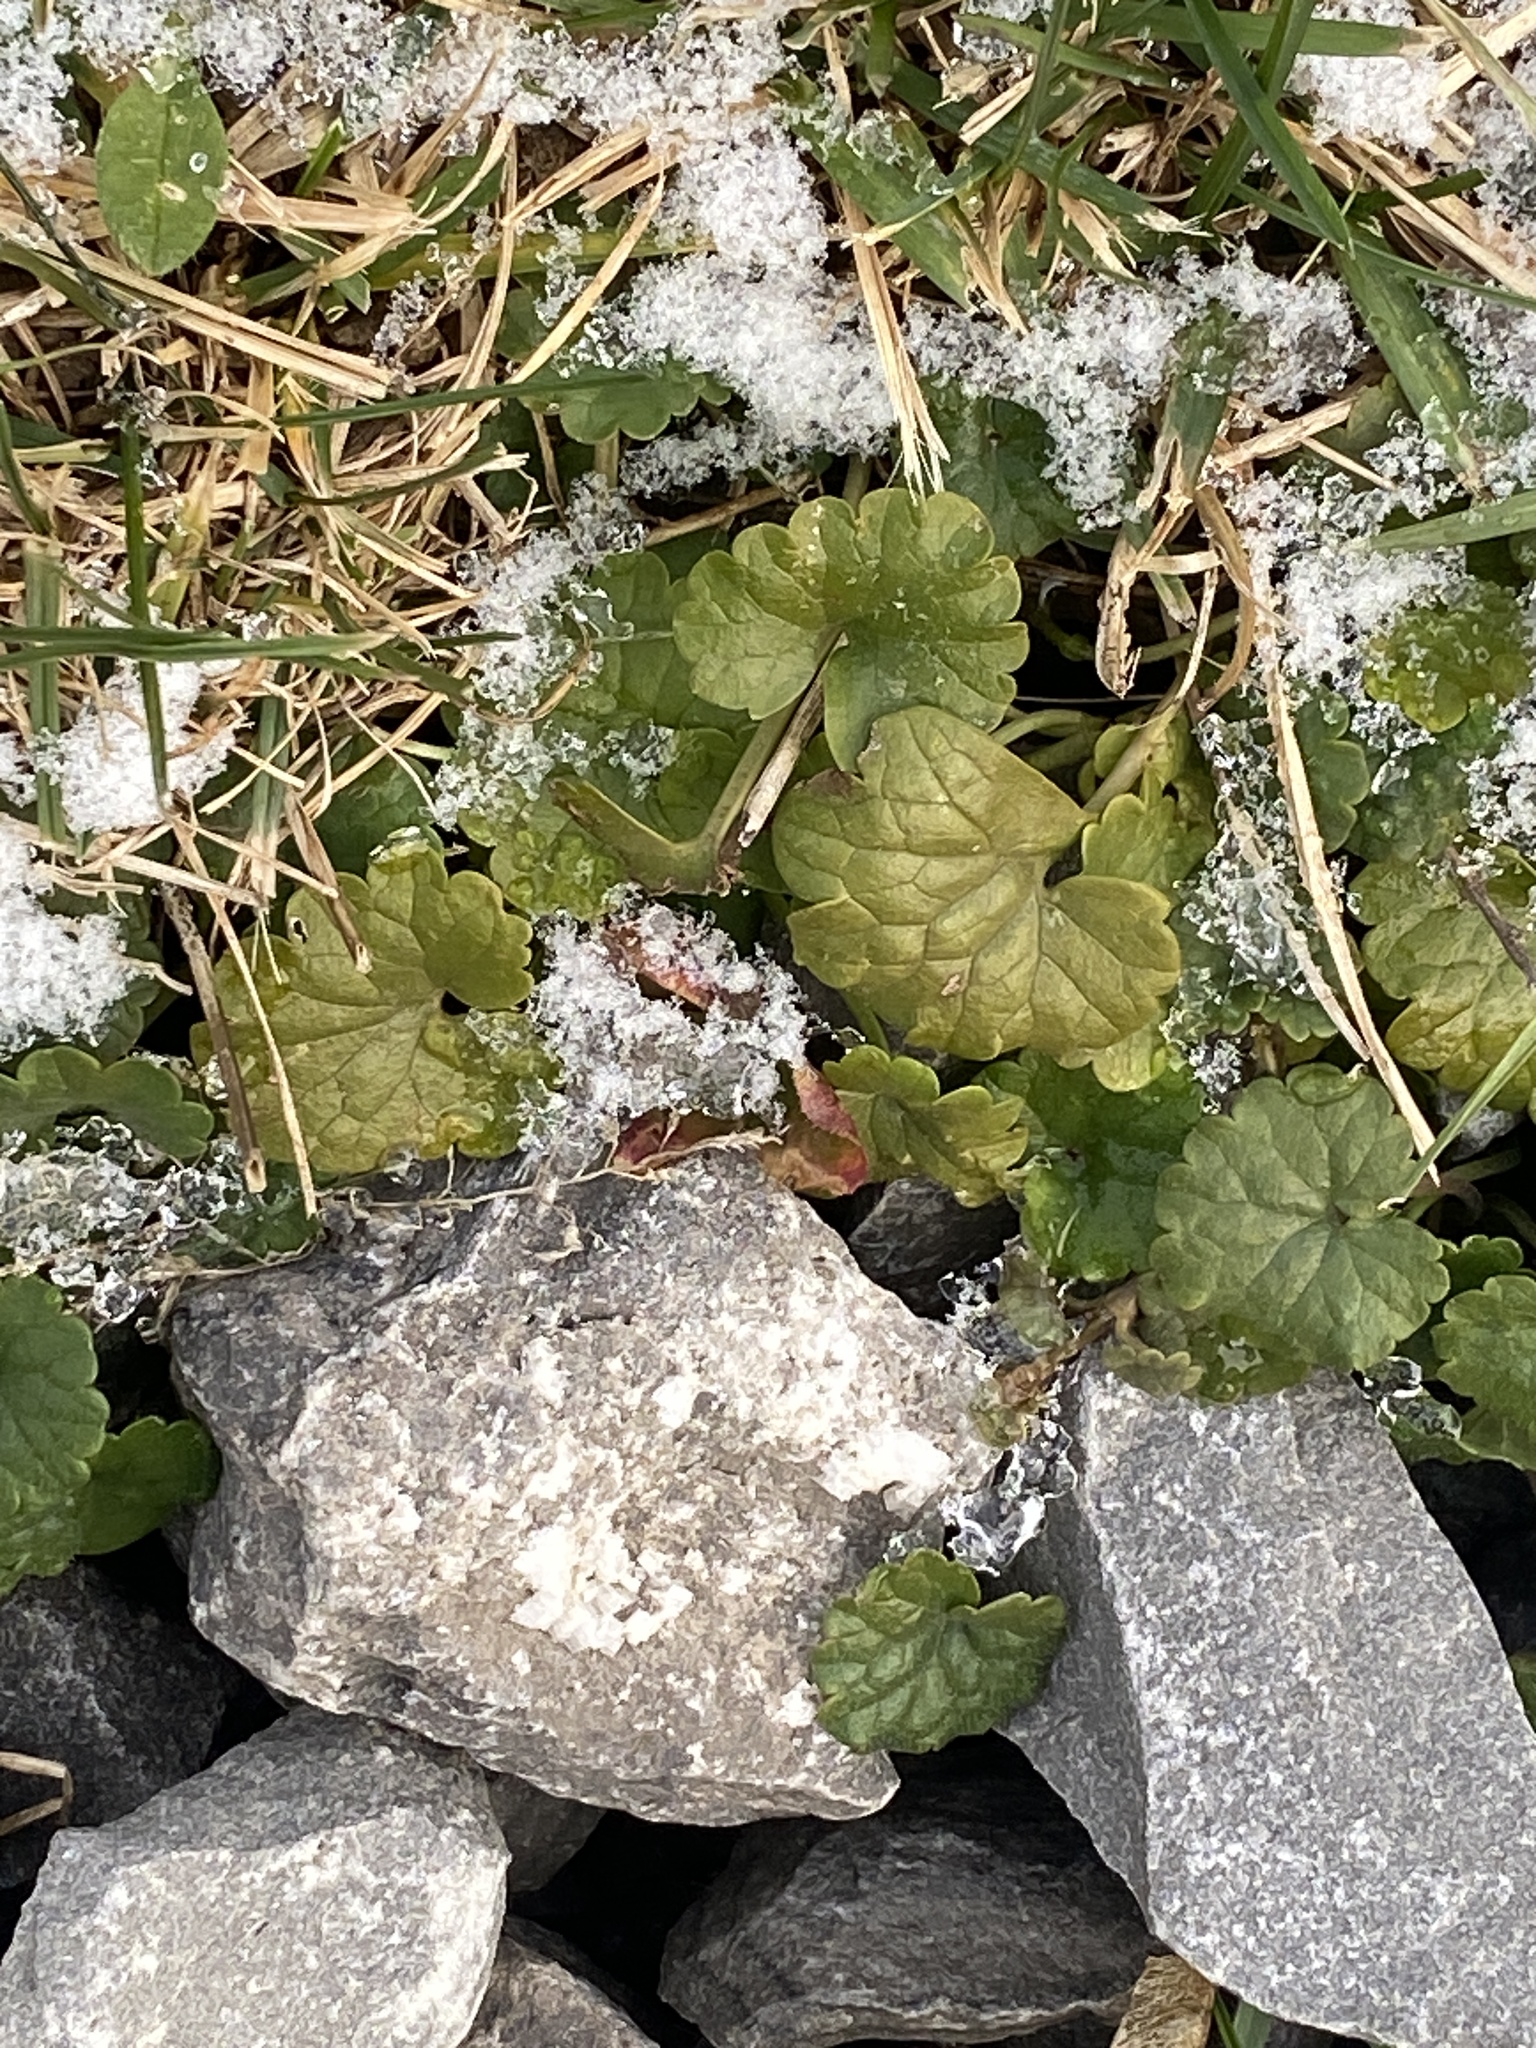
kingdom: Plantae
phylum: Tracheophyta
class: Magnoliopsida
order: Lamiales
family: Lamiaceae
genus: Glechoma
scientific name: Glechoma hederacea
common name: Ground ivy
